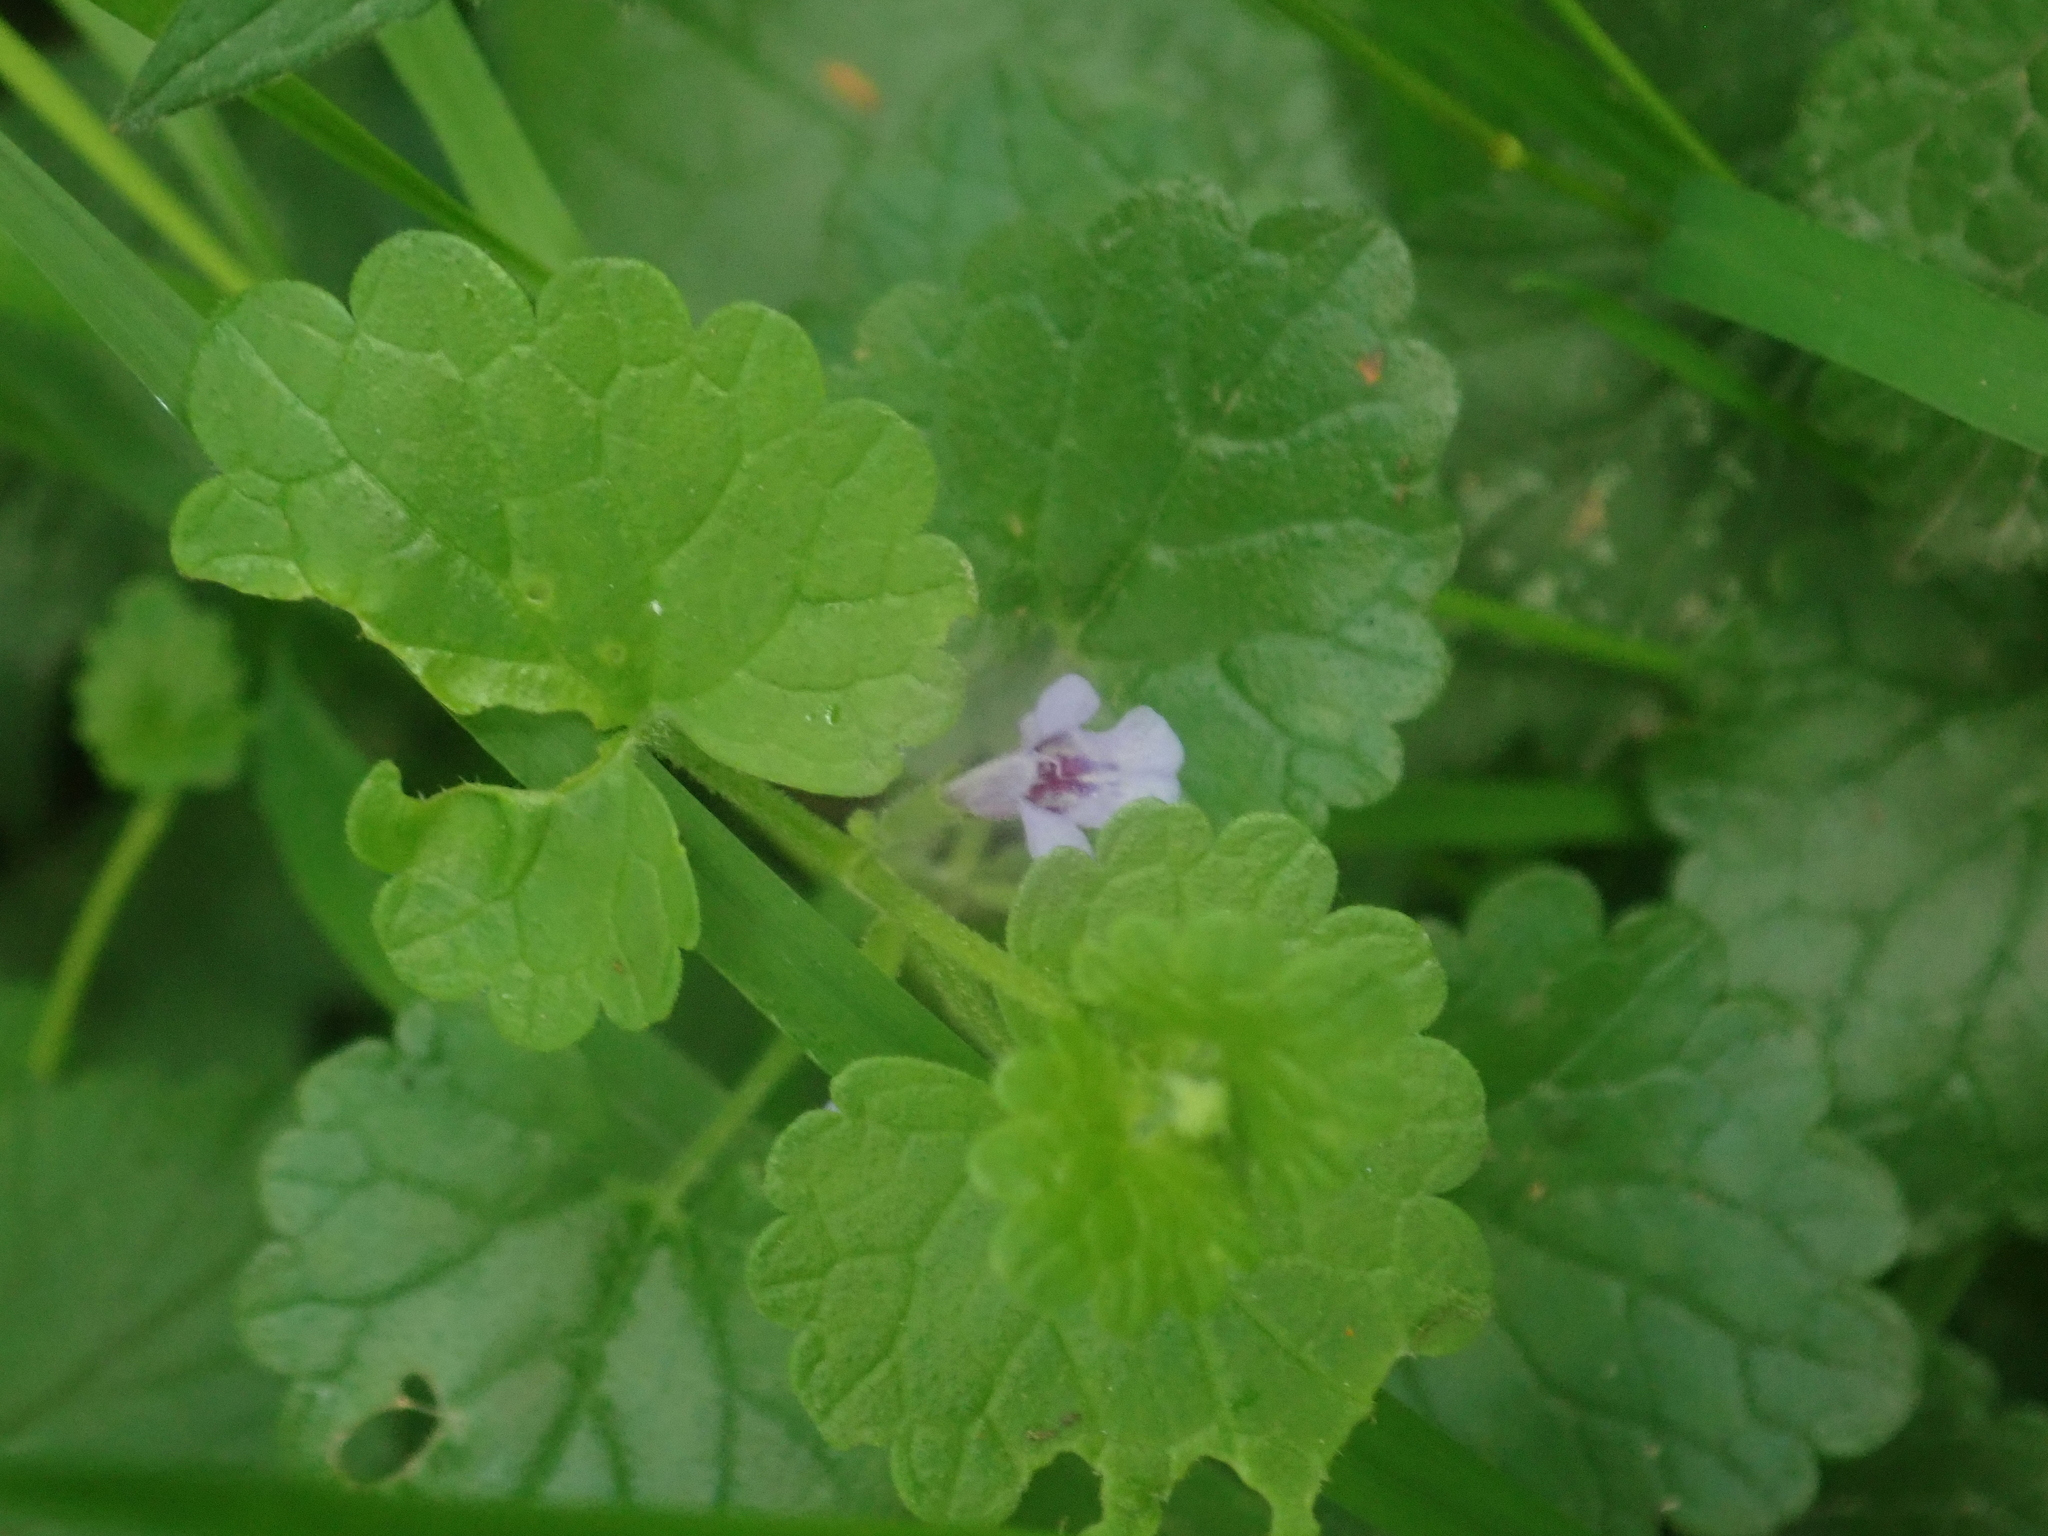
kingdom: Plantae
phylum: Tracheophyta
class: Magnoliopsida
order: Lamiales
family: Lamiaceae
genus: Glechoma
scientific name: Glechoma hederacea
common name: Ground ivy
